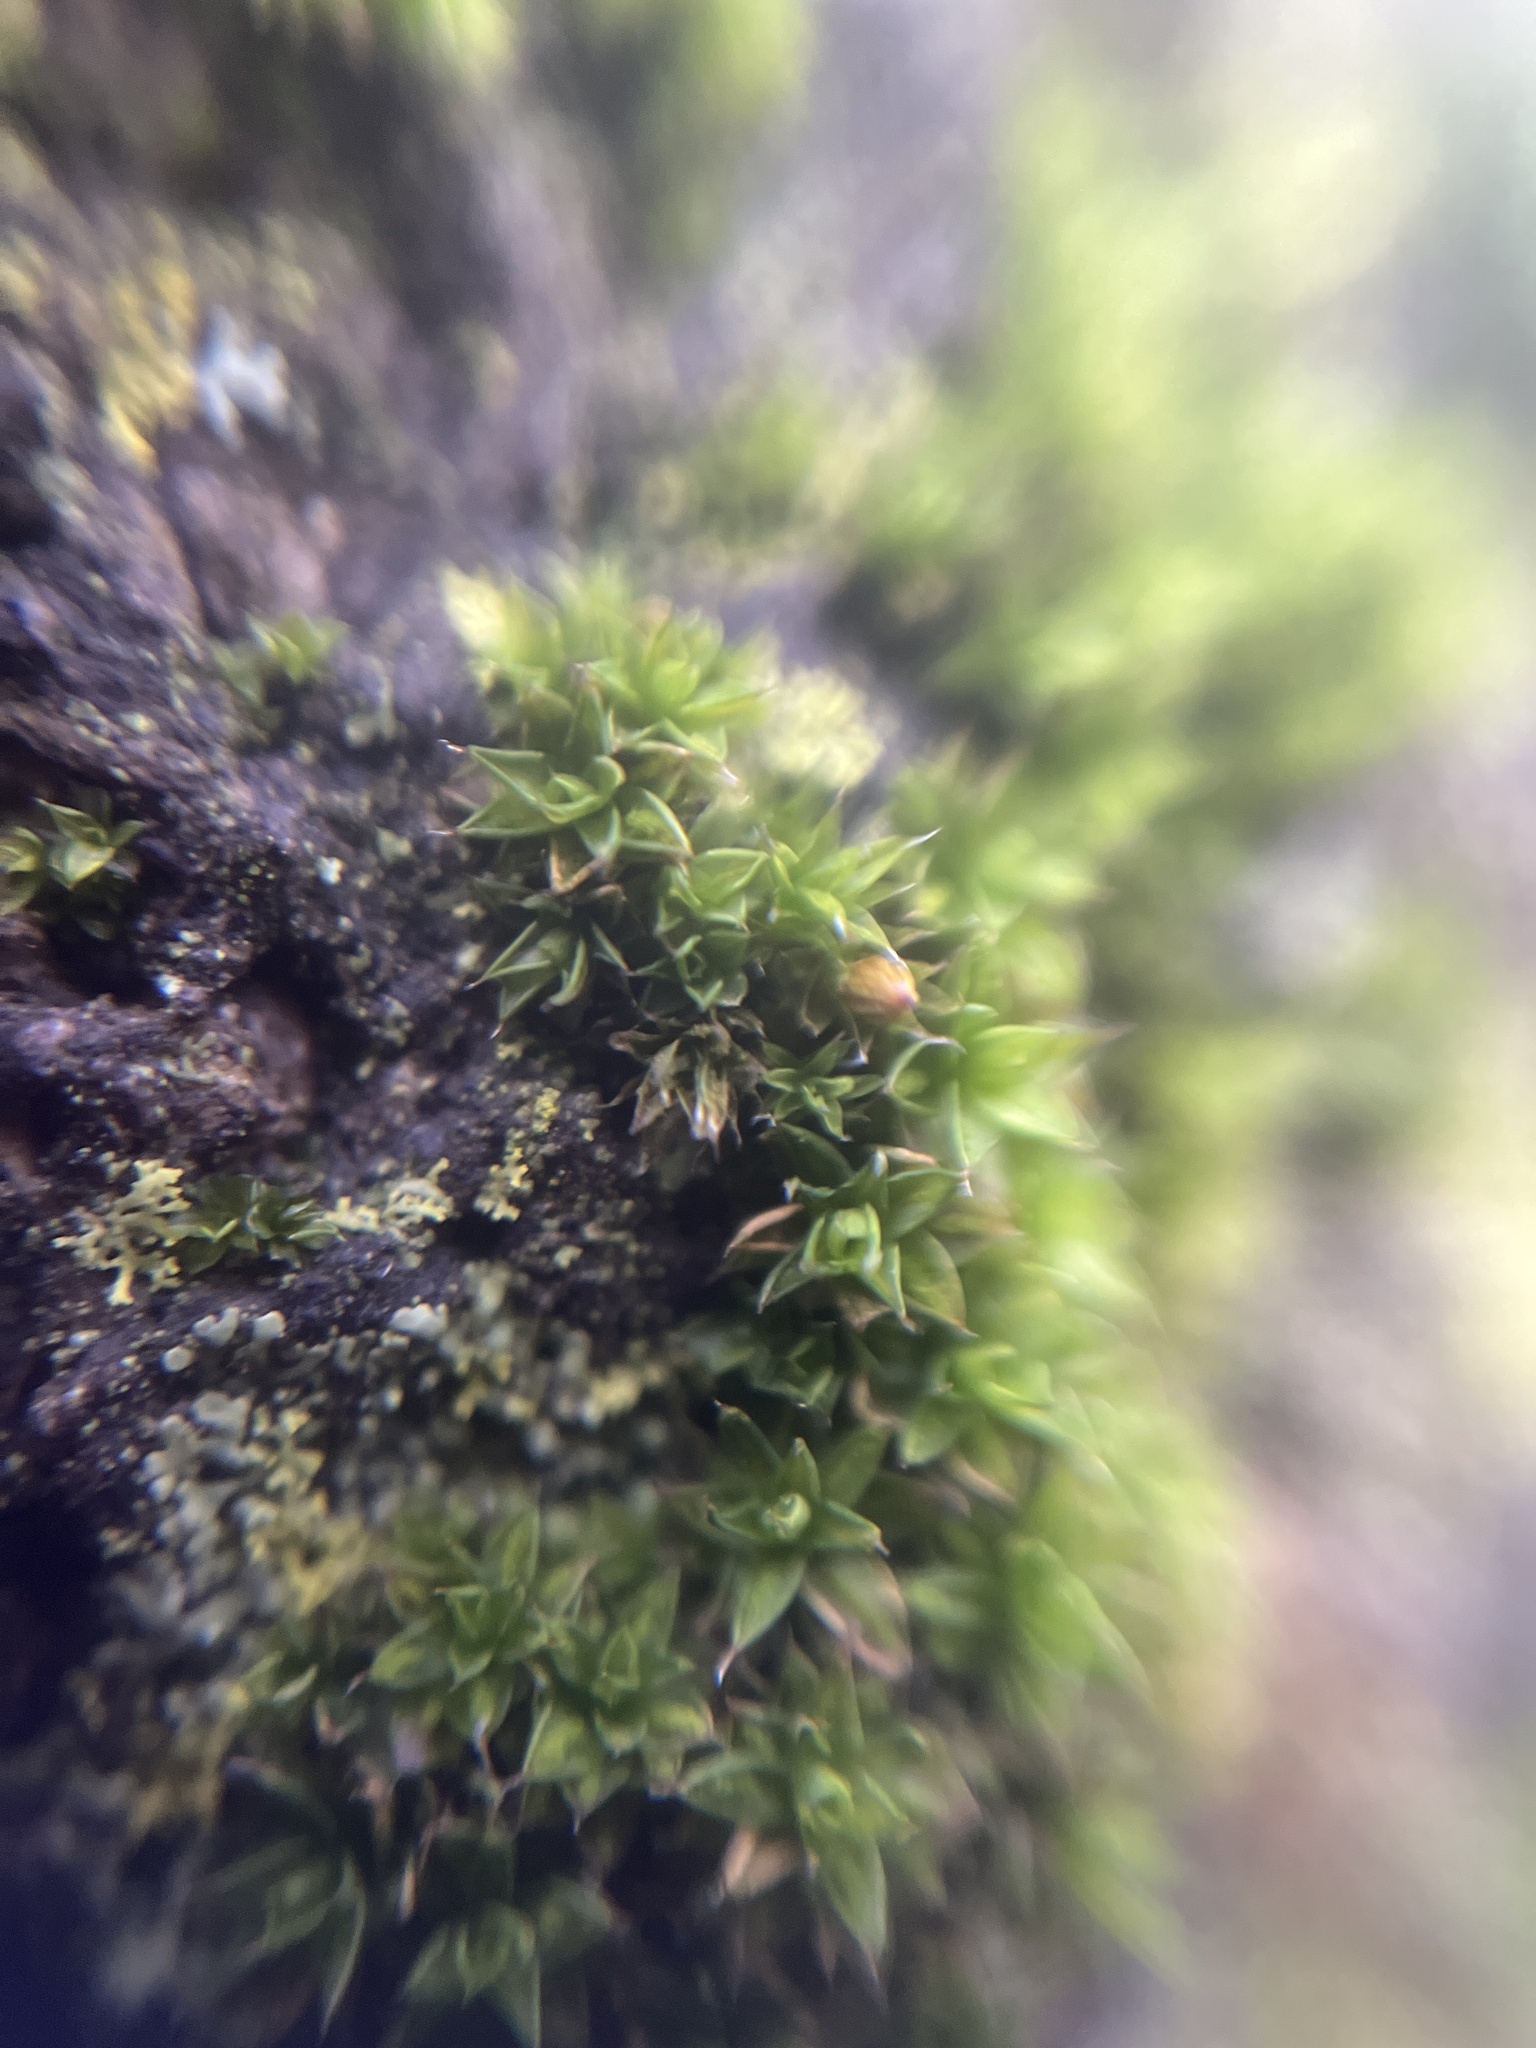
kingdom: Plantae
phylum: Bryophyta
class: Bryopsida
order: Orthotrichales
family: Orthotrichaceae
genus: Orthotrichum
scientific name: Orthotrichum diaphanum
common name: White-tipped bristle-moss
